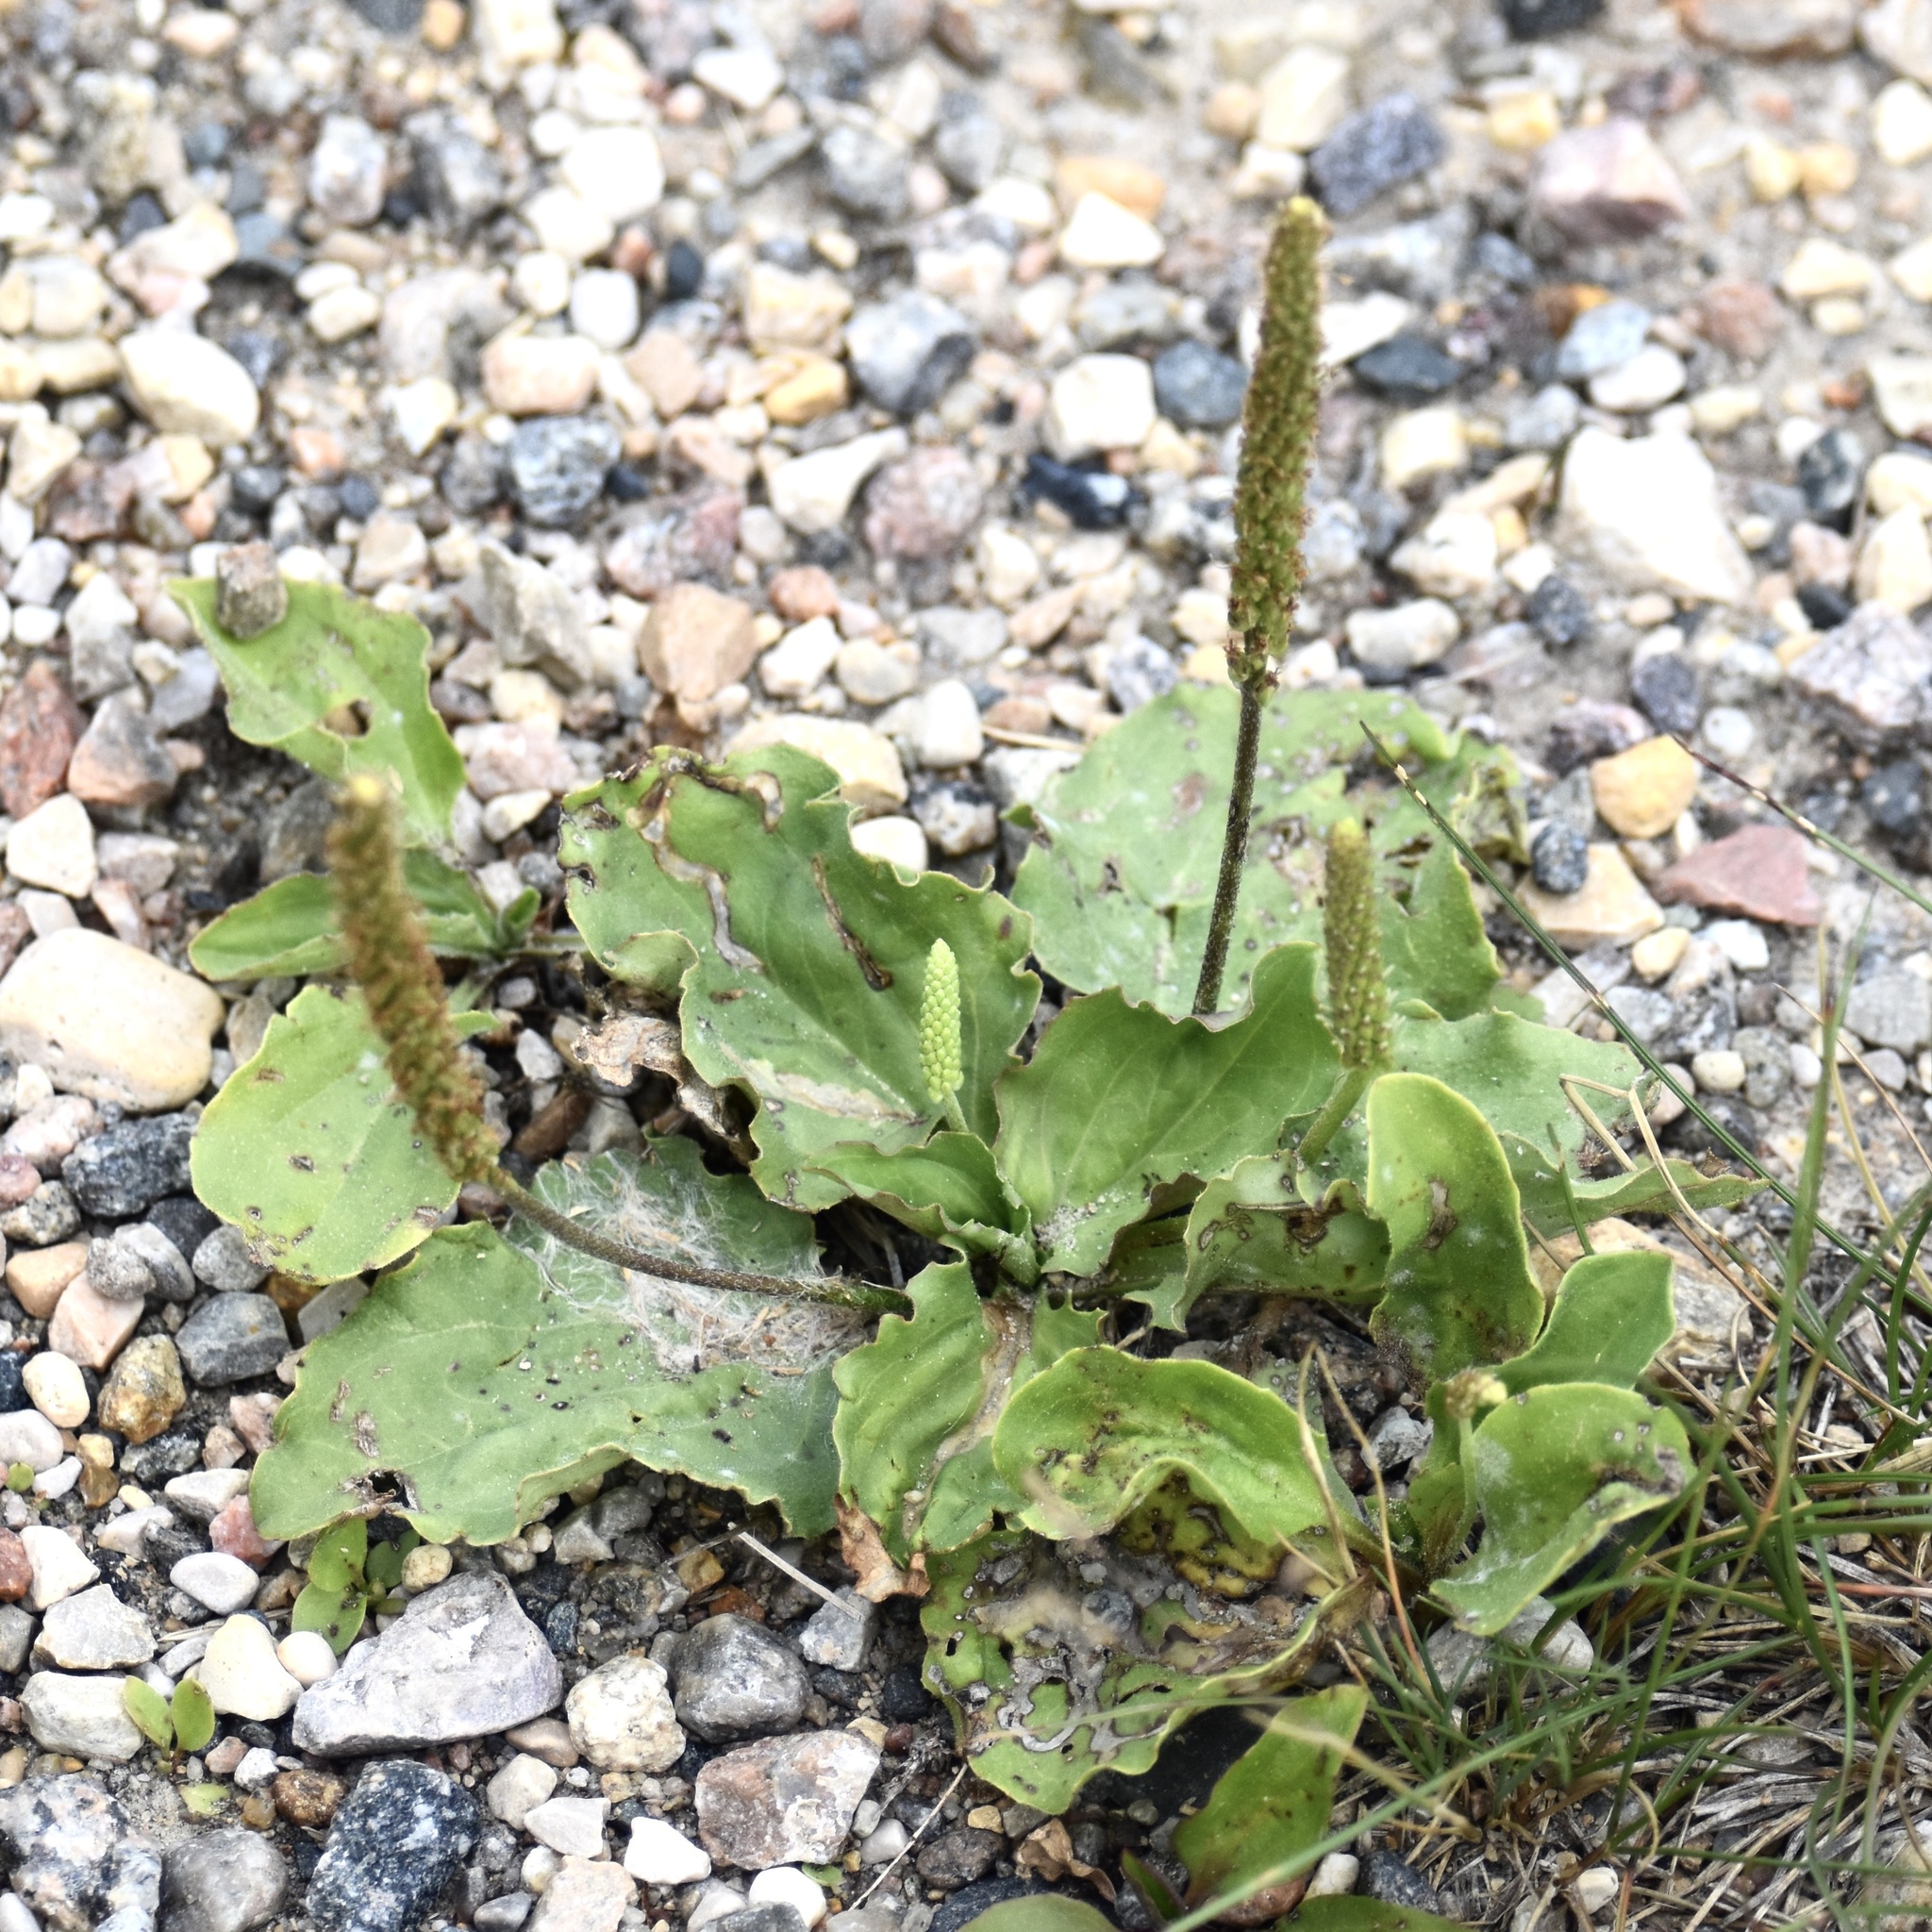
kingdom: Plantae
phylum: Tracheophyta
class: Magnoliopsida
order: Lamiales
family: Plantaginaceae
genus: Plantago
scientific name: Plantago major
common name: Common plantain
